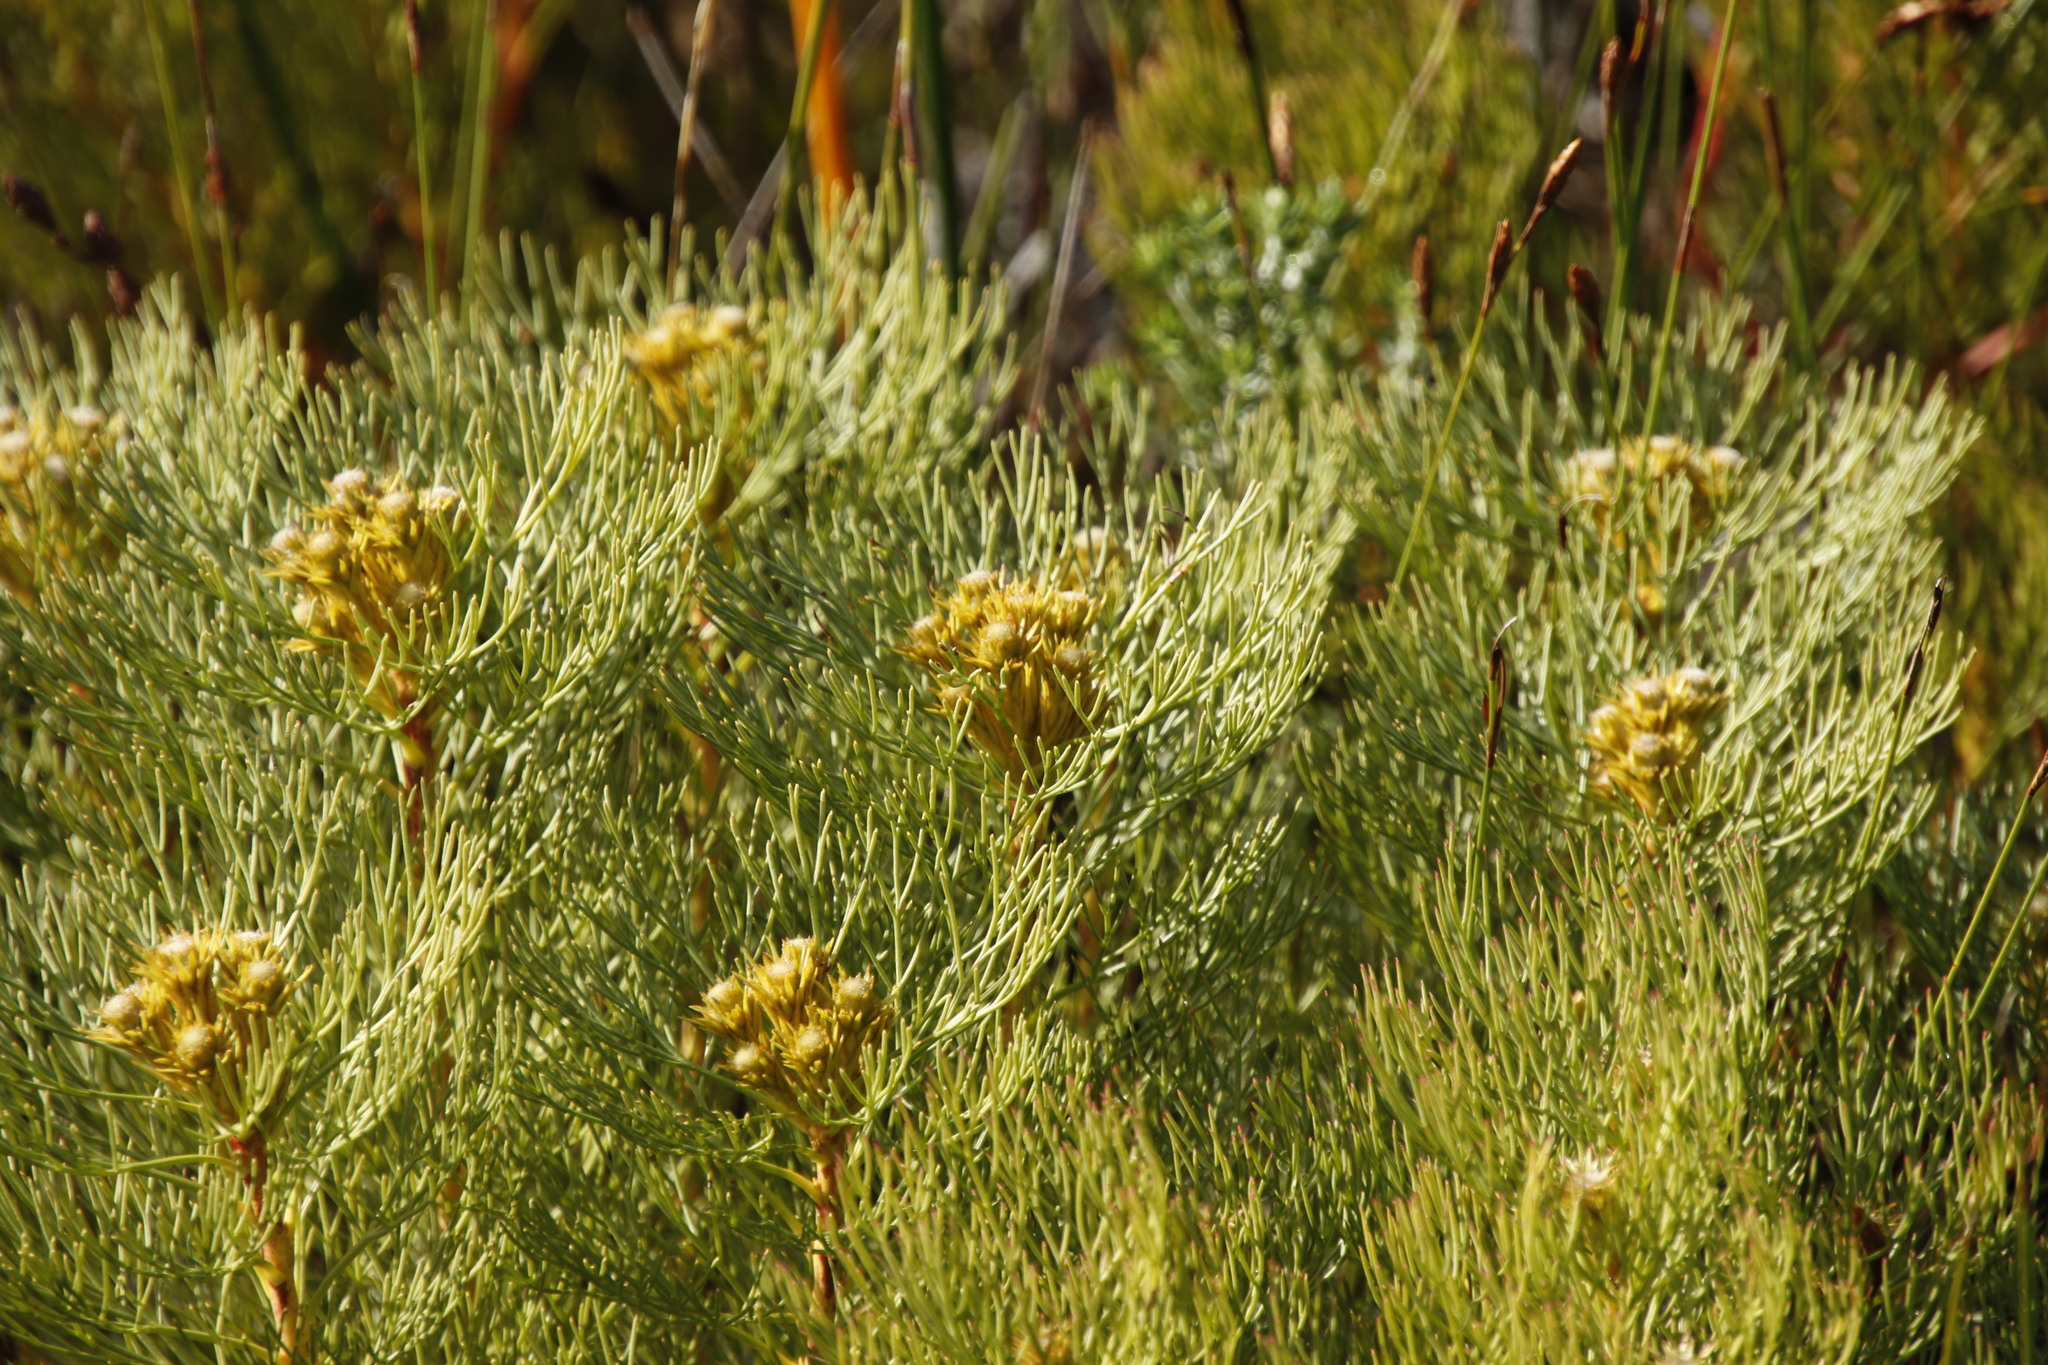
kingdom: Plantae
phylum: Tracheophyta
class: Magnoliopsida
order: Proteales
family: Proteaceae
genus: Serruria
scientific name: Serruria glomerata
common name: Cluster spiderhead
